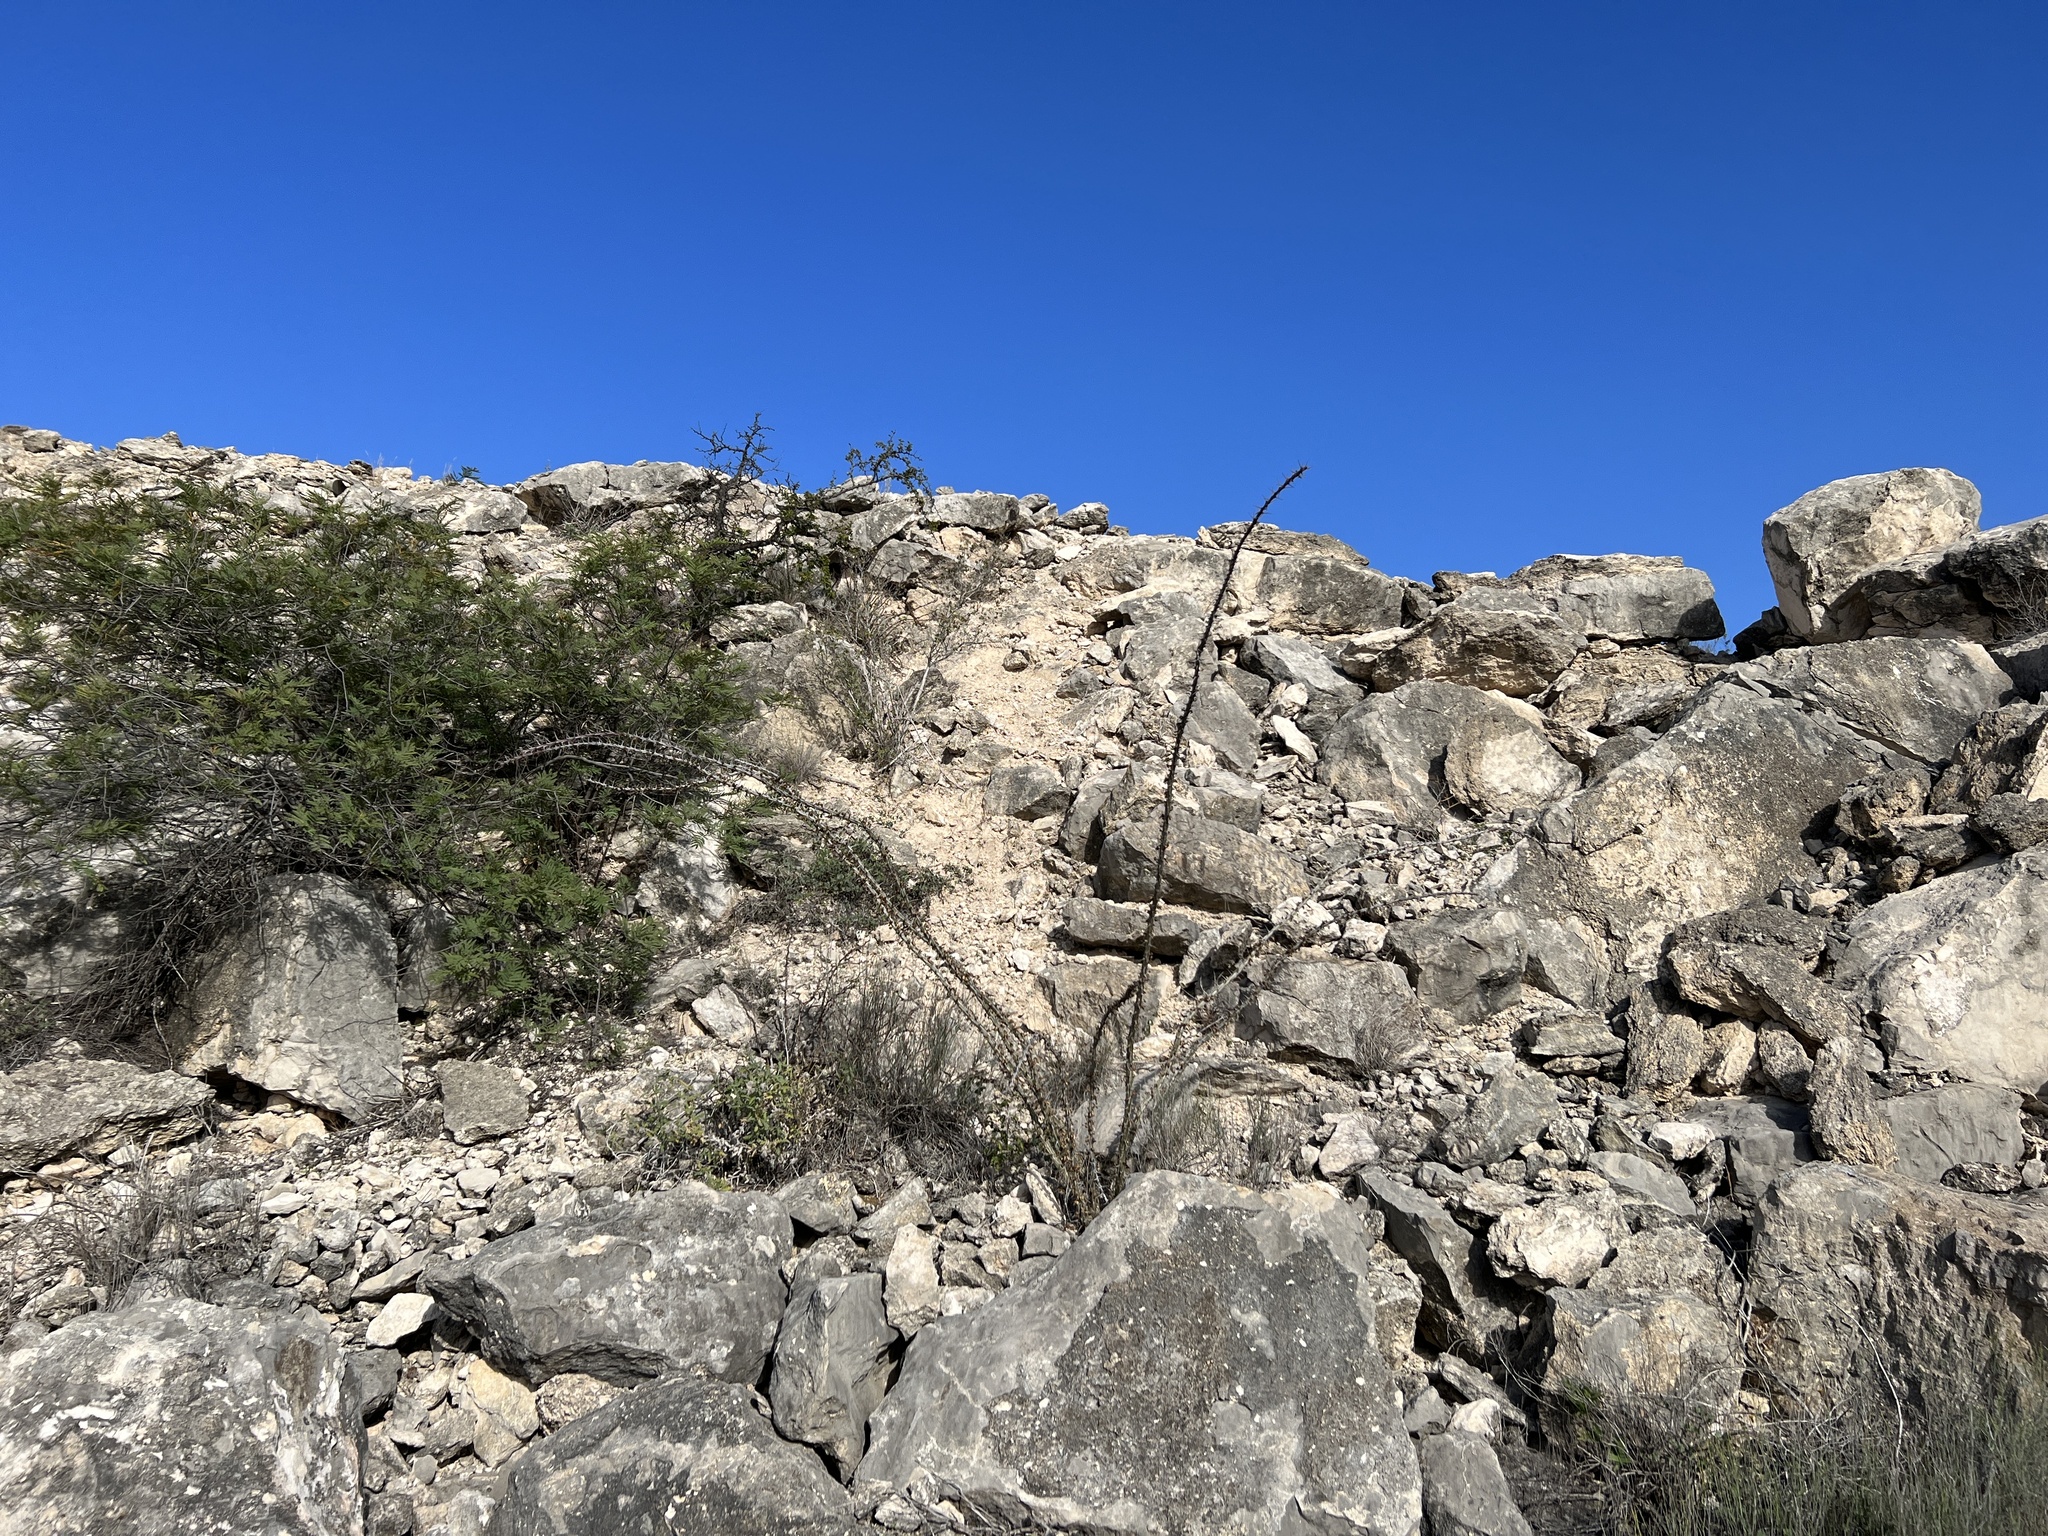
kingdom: Plantae
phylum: Tracheophyta
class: Magnoliopsida
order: Ericales
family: Fouquieriaceae
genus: Fouquieria
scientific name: Fouquieria splendens
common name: Vine-cactus
